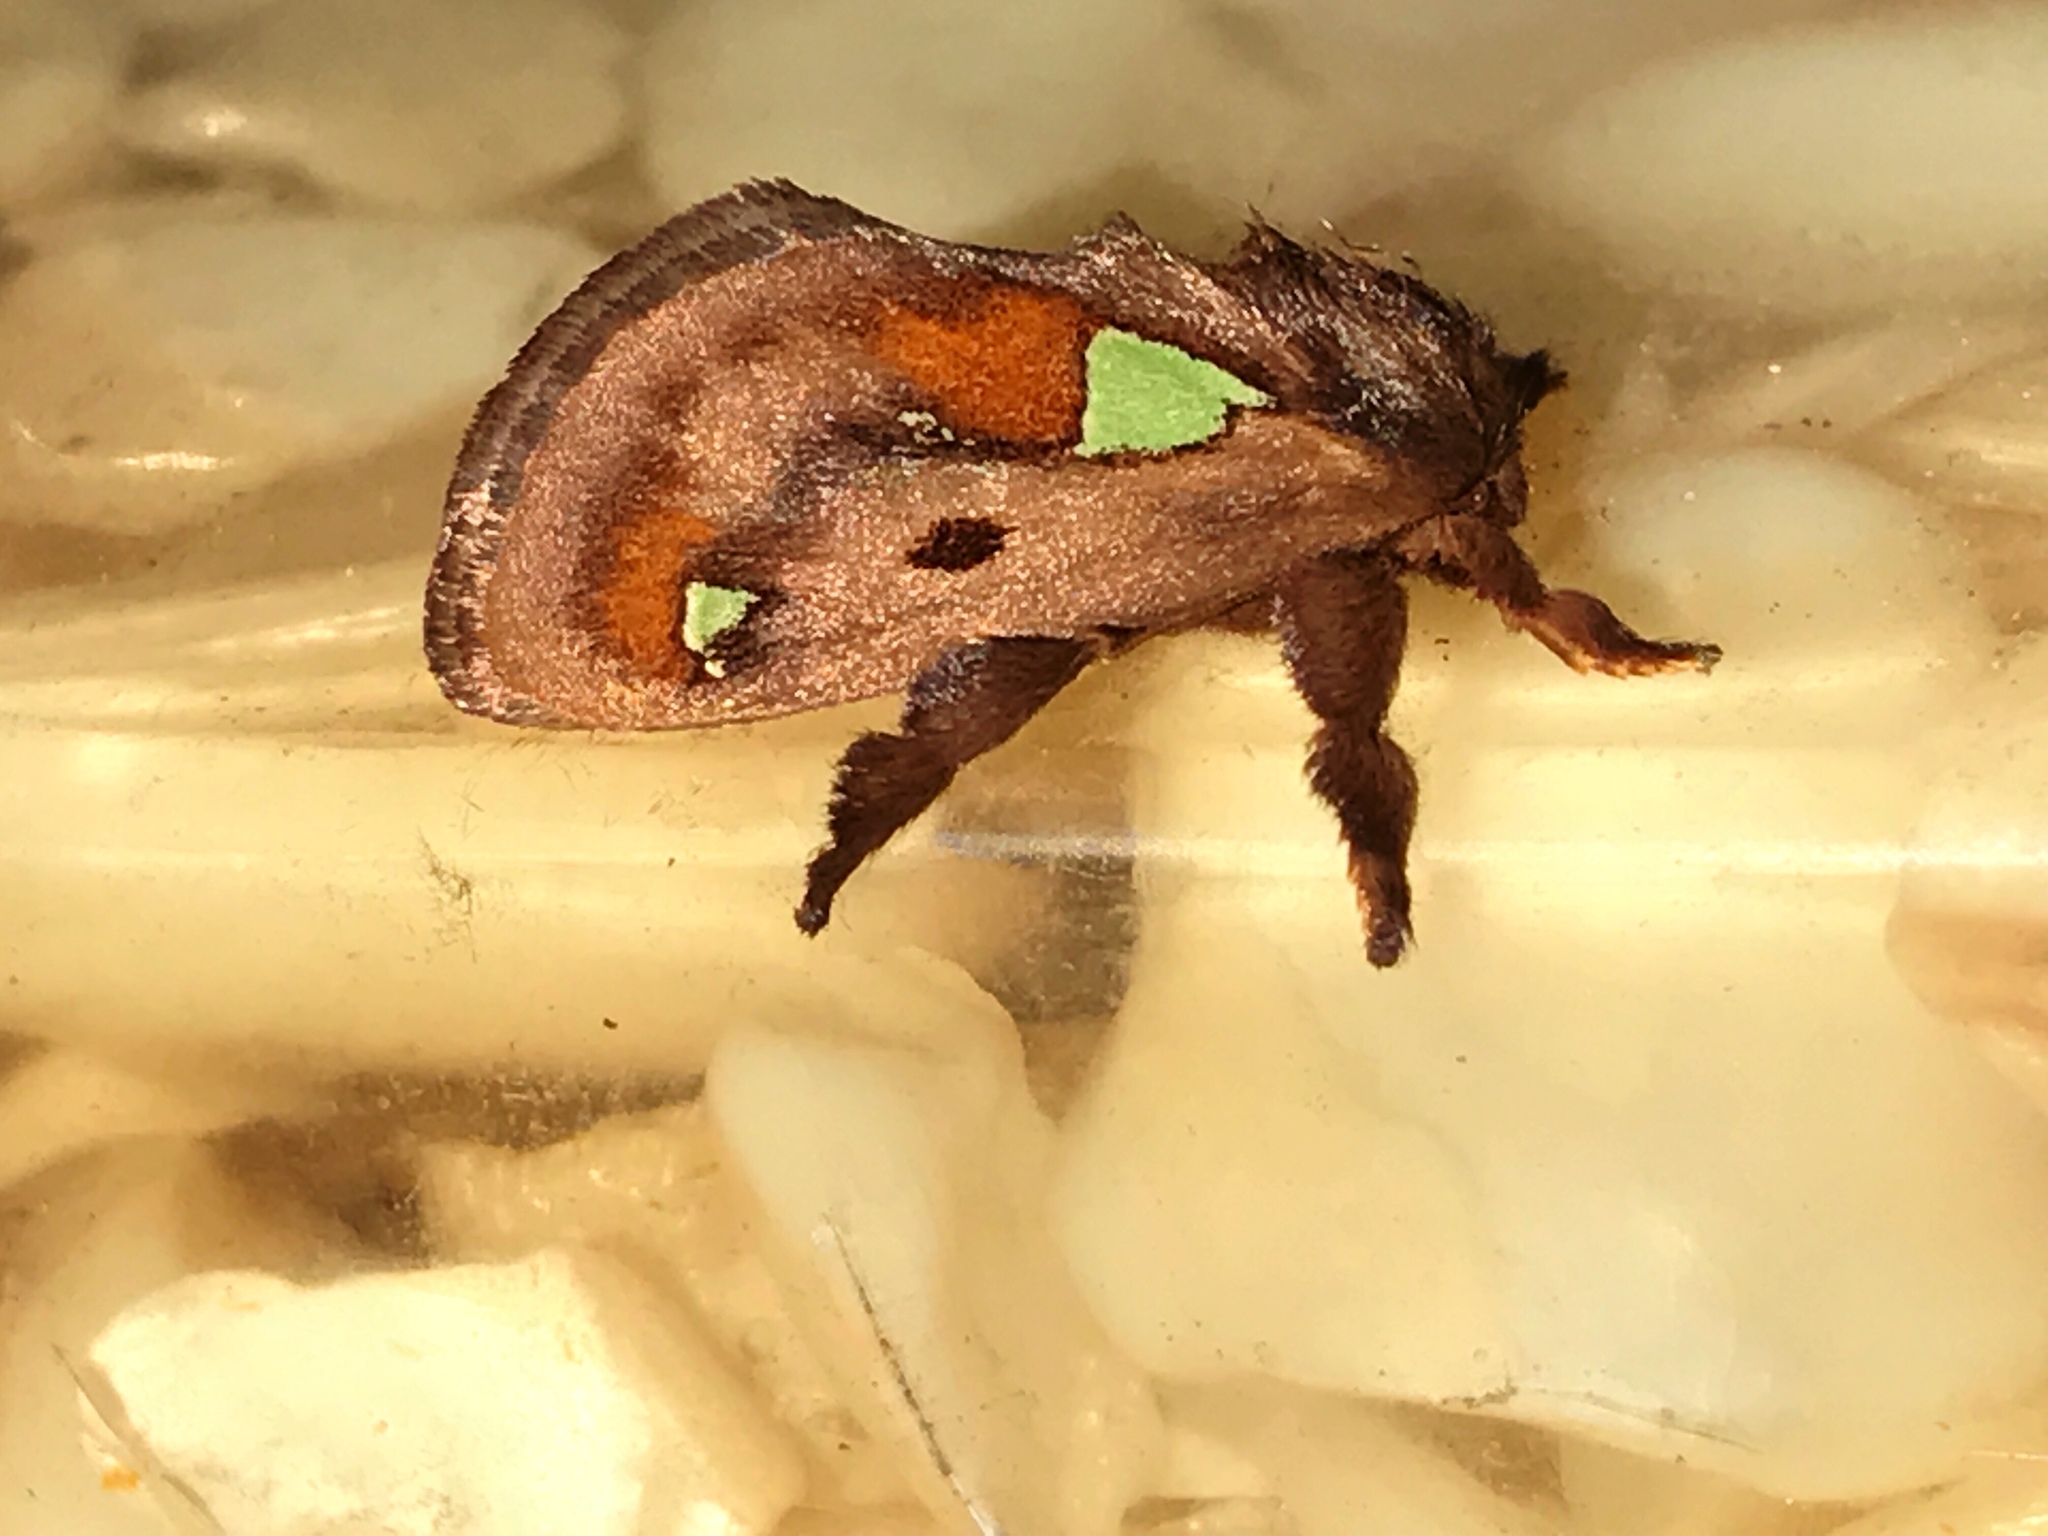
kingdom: Animalia
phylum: Arthropoda
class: Insecta
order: Lepidoptera
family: Limacodidae
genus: Euclea
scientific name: Euclea delphinii
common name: Spiny oak-slug moth
